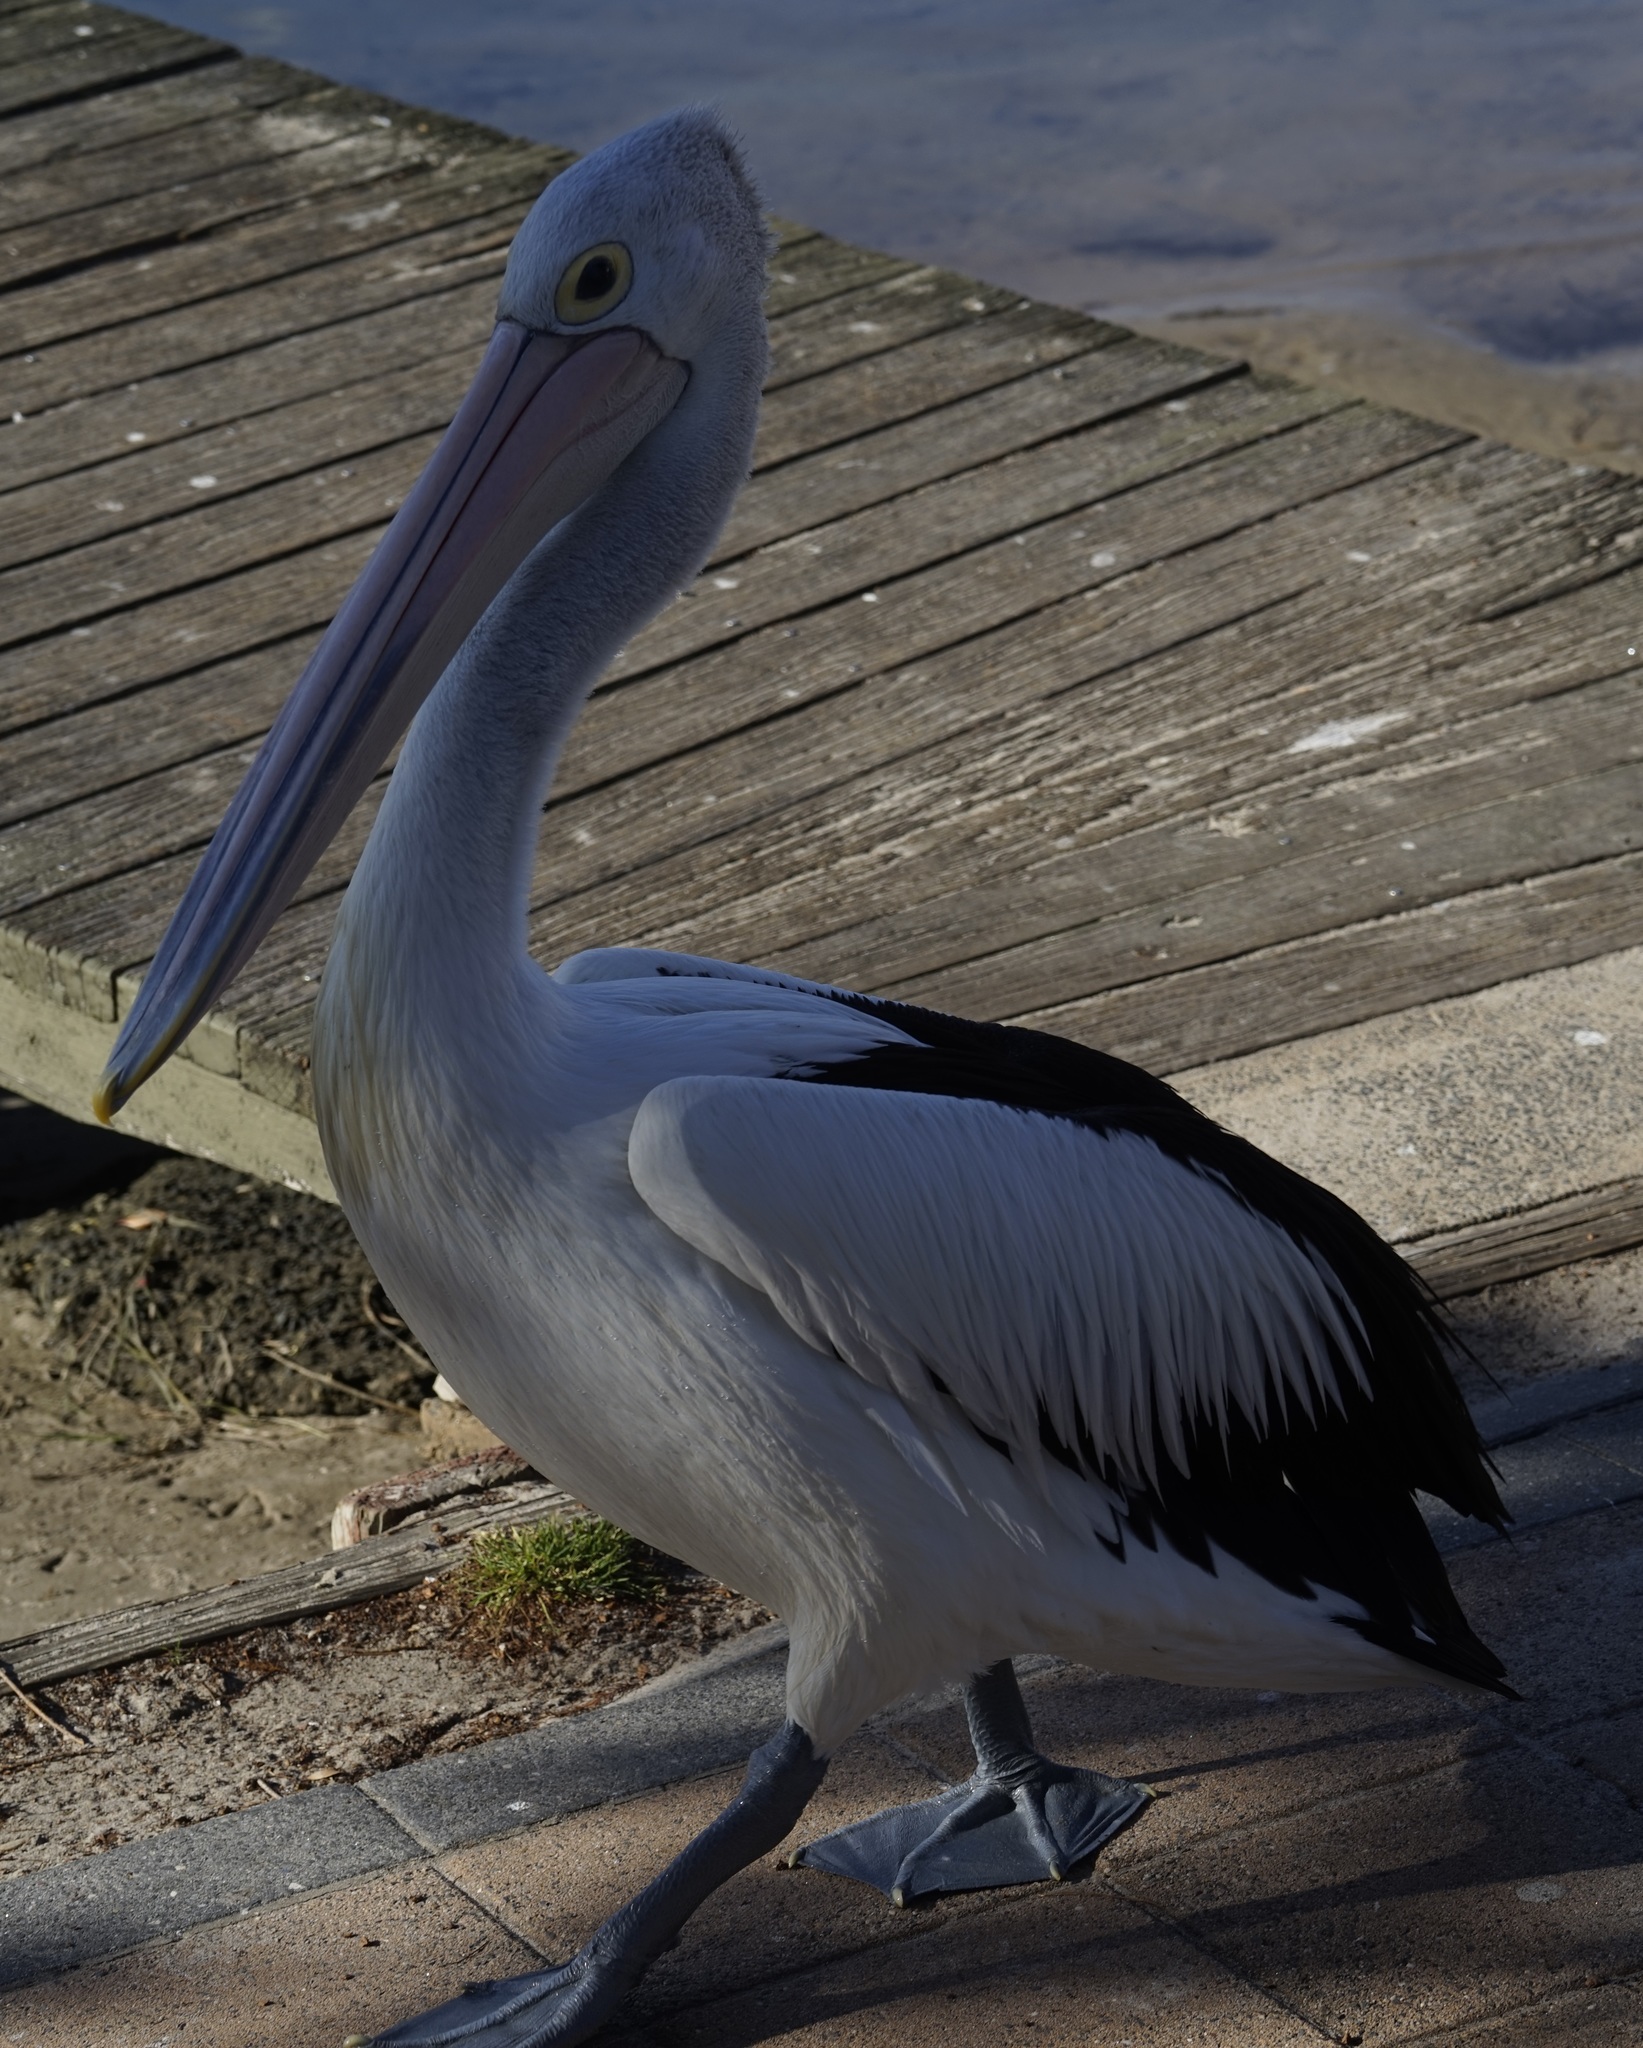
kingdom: Animalia
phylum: Chordata
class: Aves
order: Pelecaniformes
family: Pelecanidae
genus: Pelecanus
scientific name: Pelecanus conspicillatus
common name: Australian pelican
